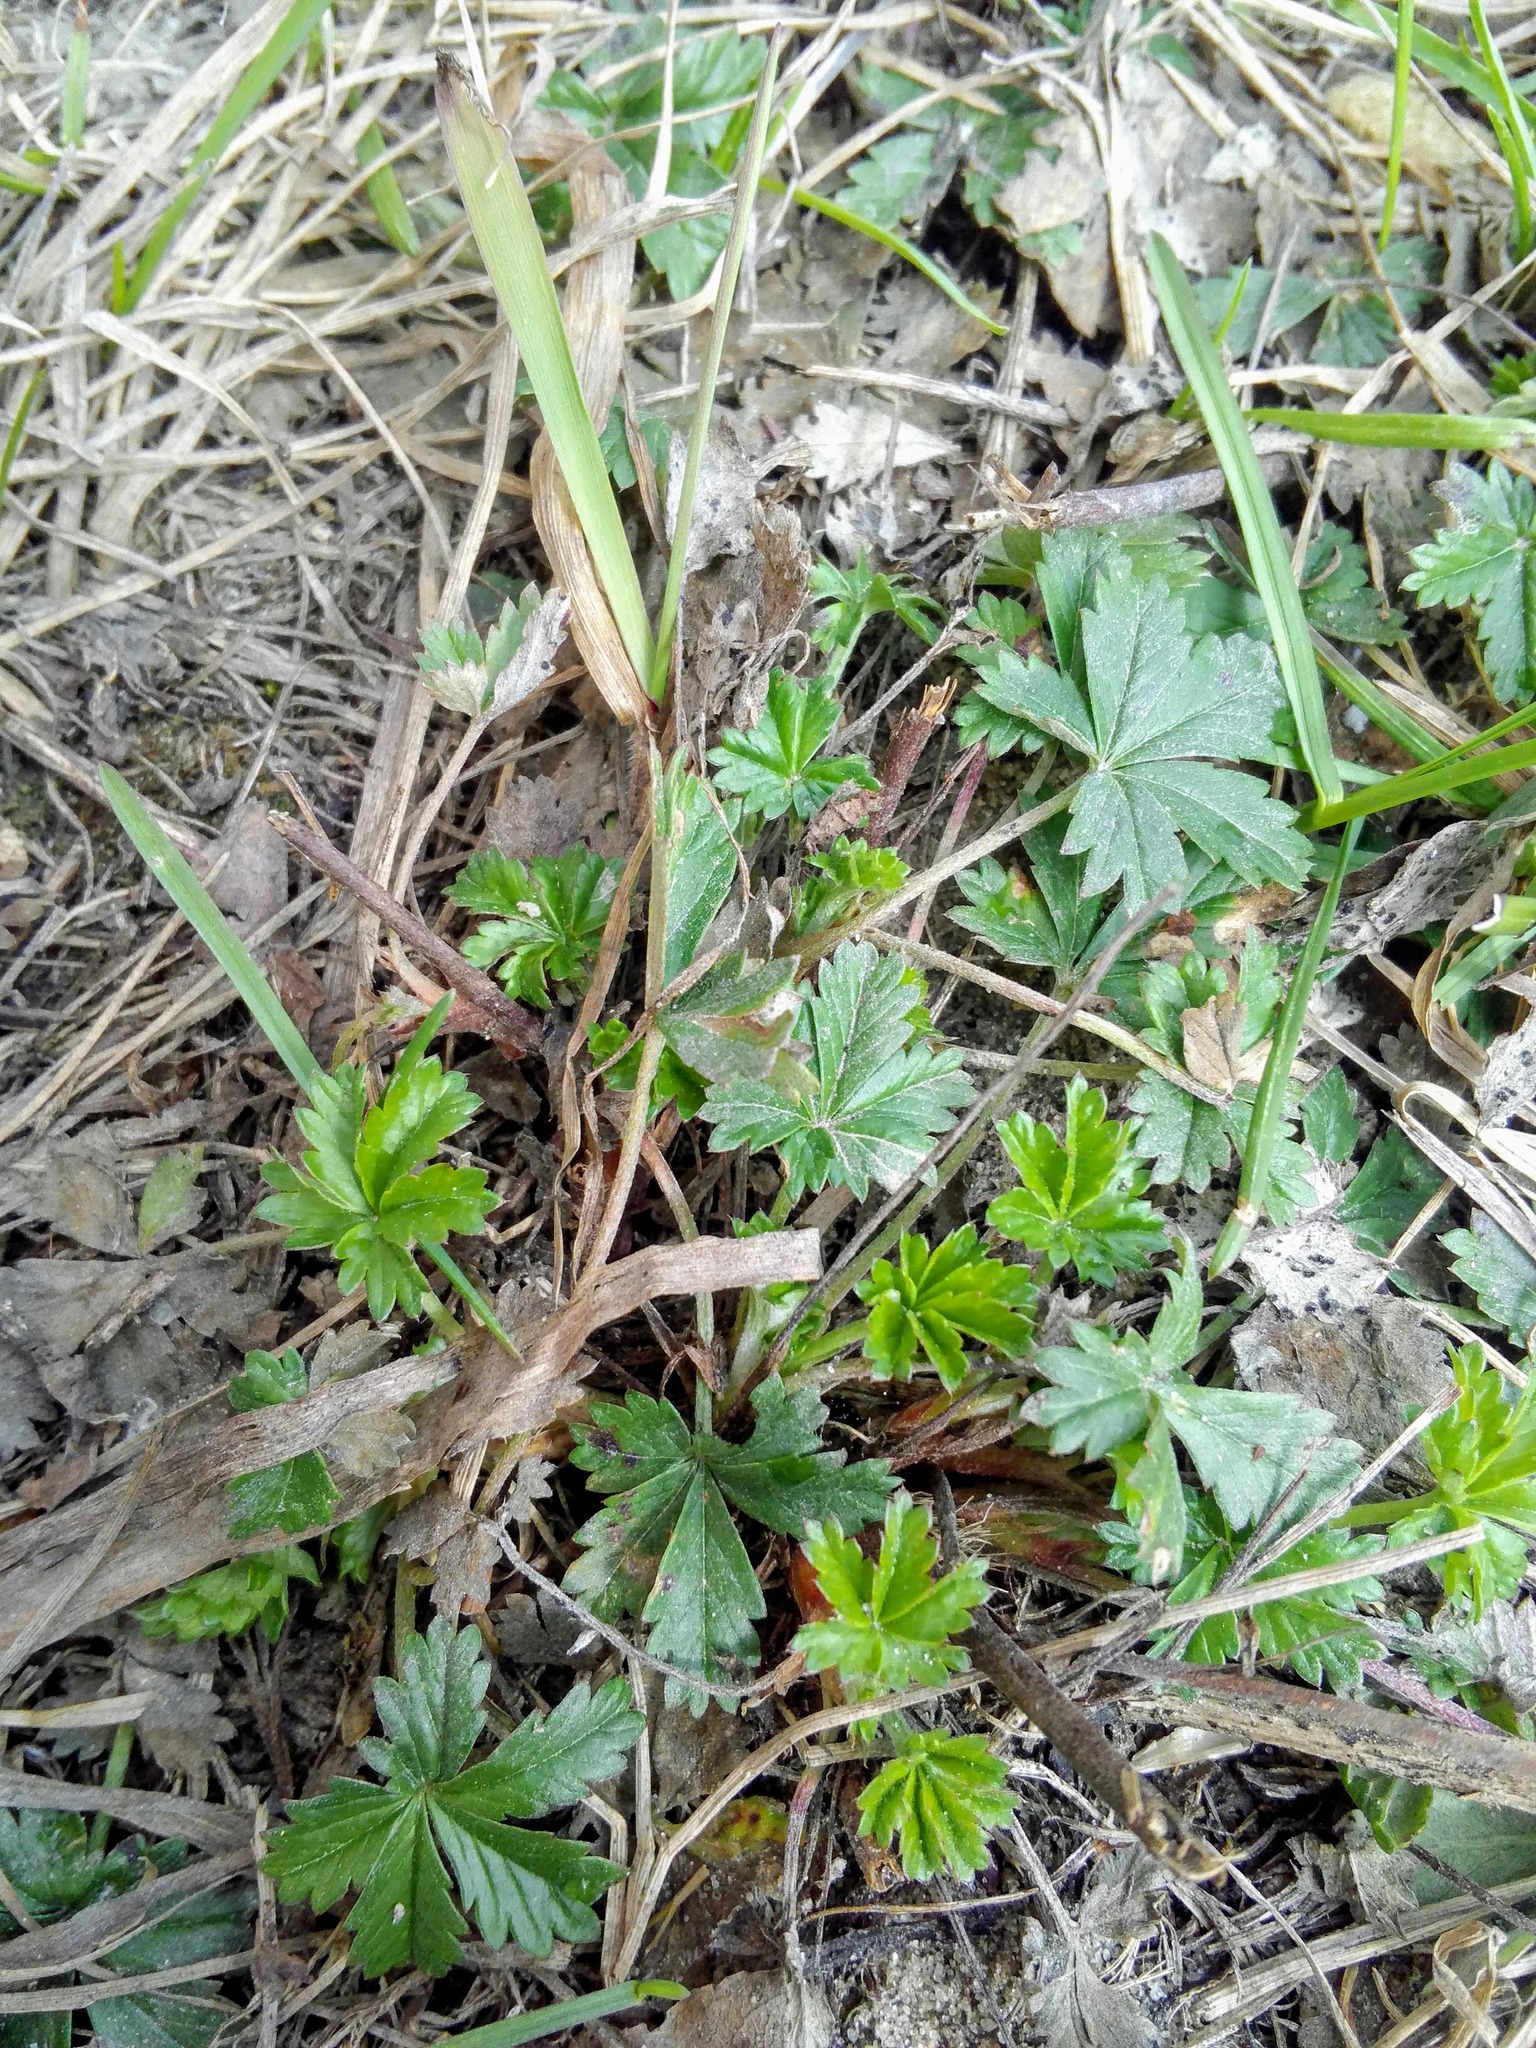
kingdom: Plantae
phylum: Tracheophyta
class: Magnoliopsida
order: Rosales
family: Rosaceae
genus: Potentilla
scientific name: Potentilla argentea
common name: Hoary cinquefoil
